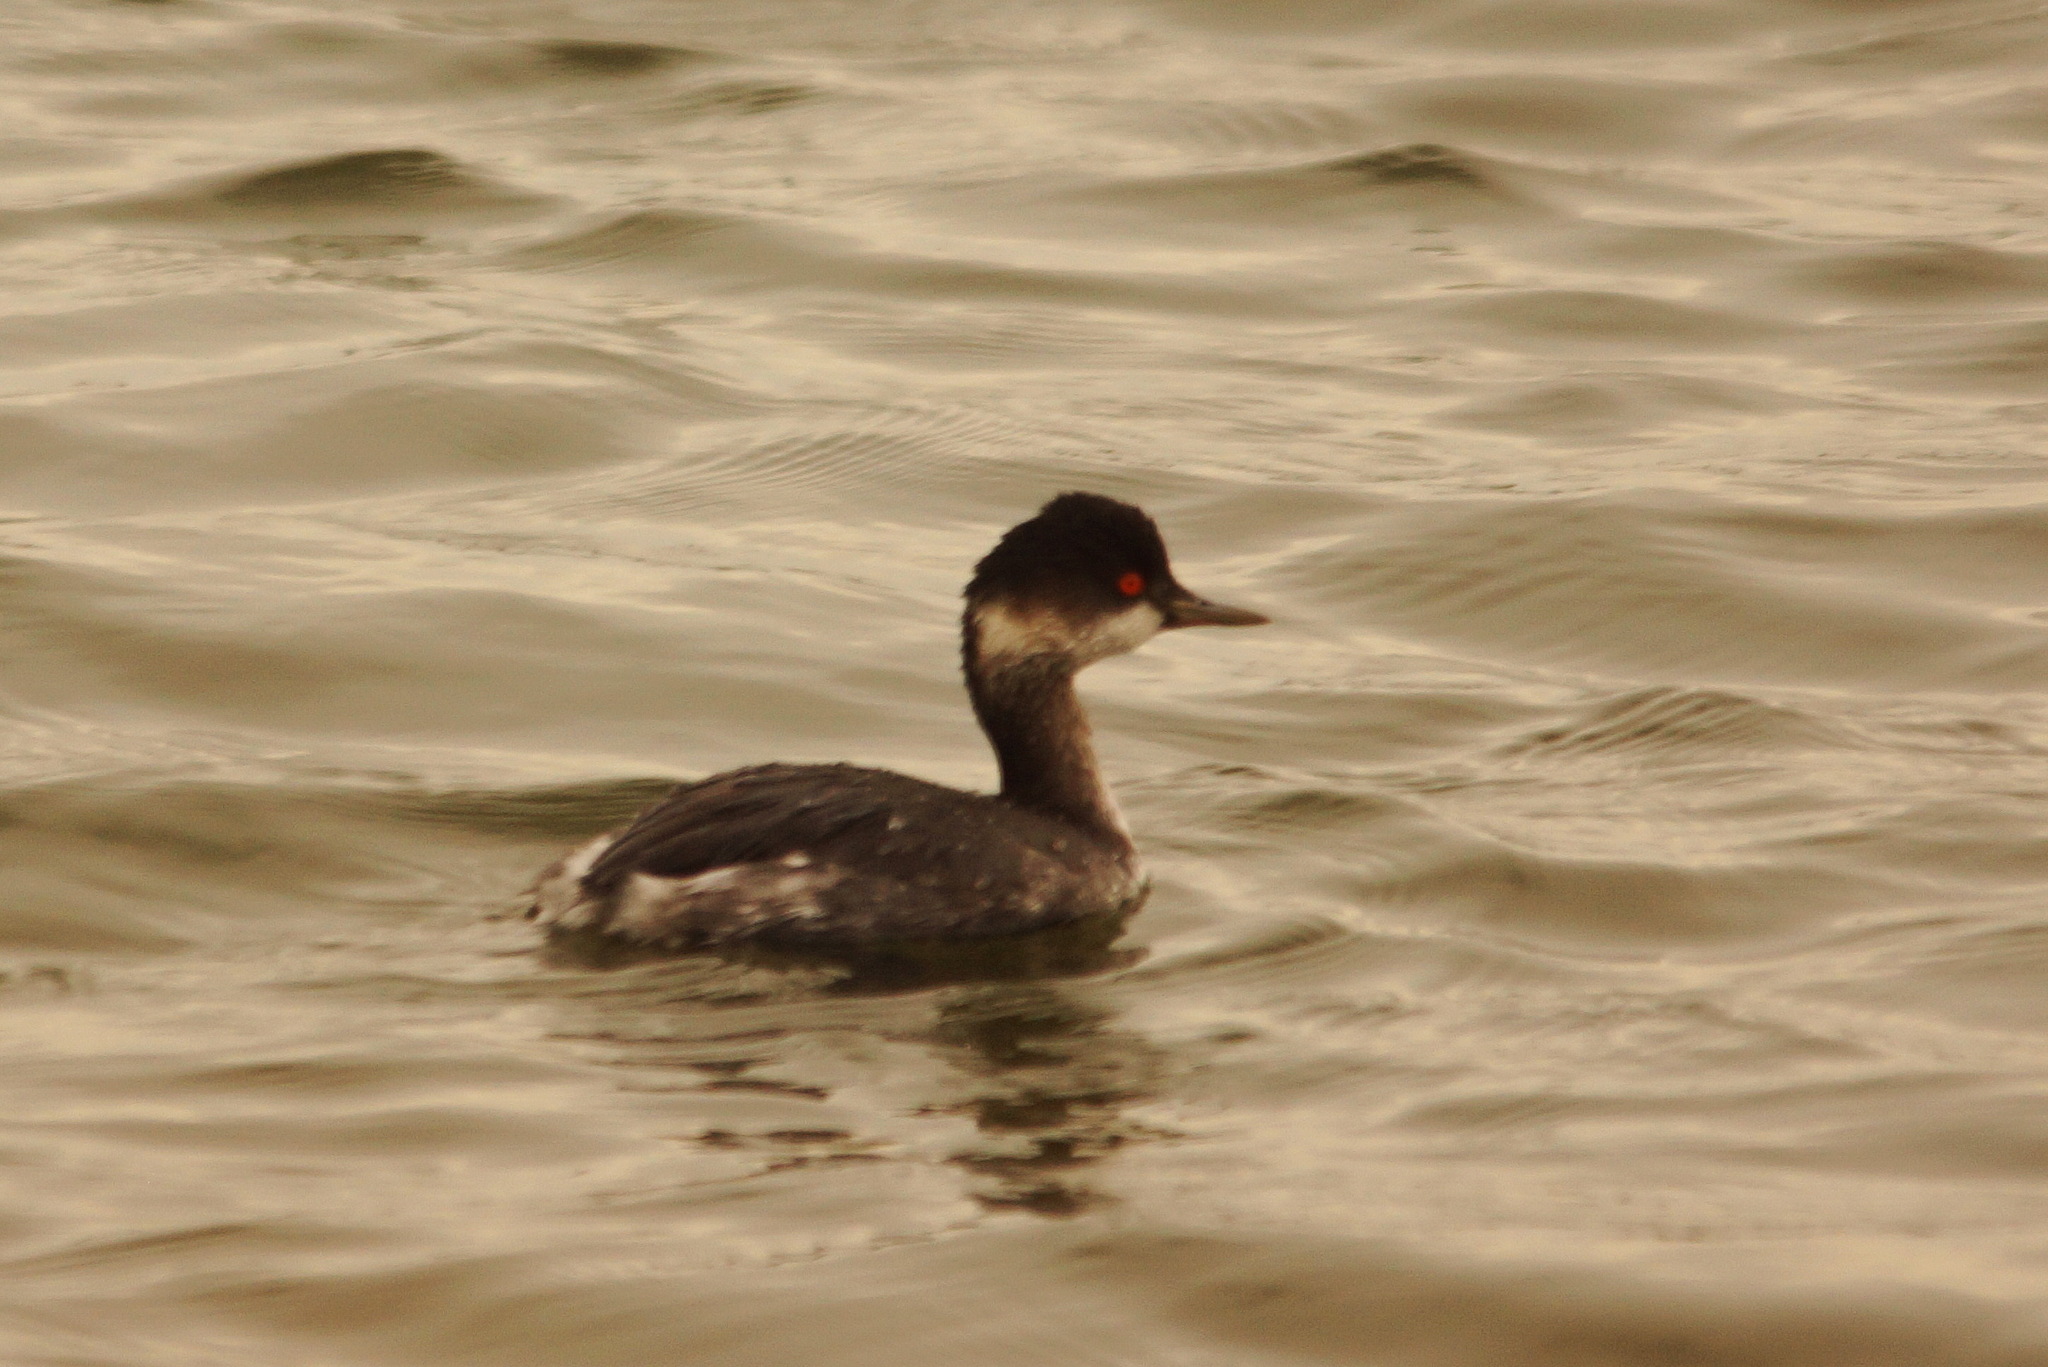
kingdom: Animalia
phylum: Chordata
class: Aves
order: Podicipediformes
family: Podicipedidae
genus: Podiceps
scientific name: Podiceps nigricollis
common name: Black-necked grebe
